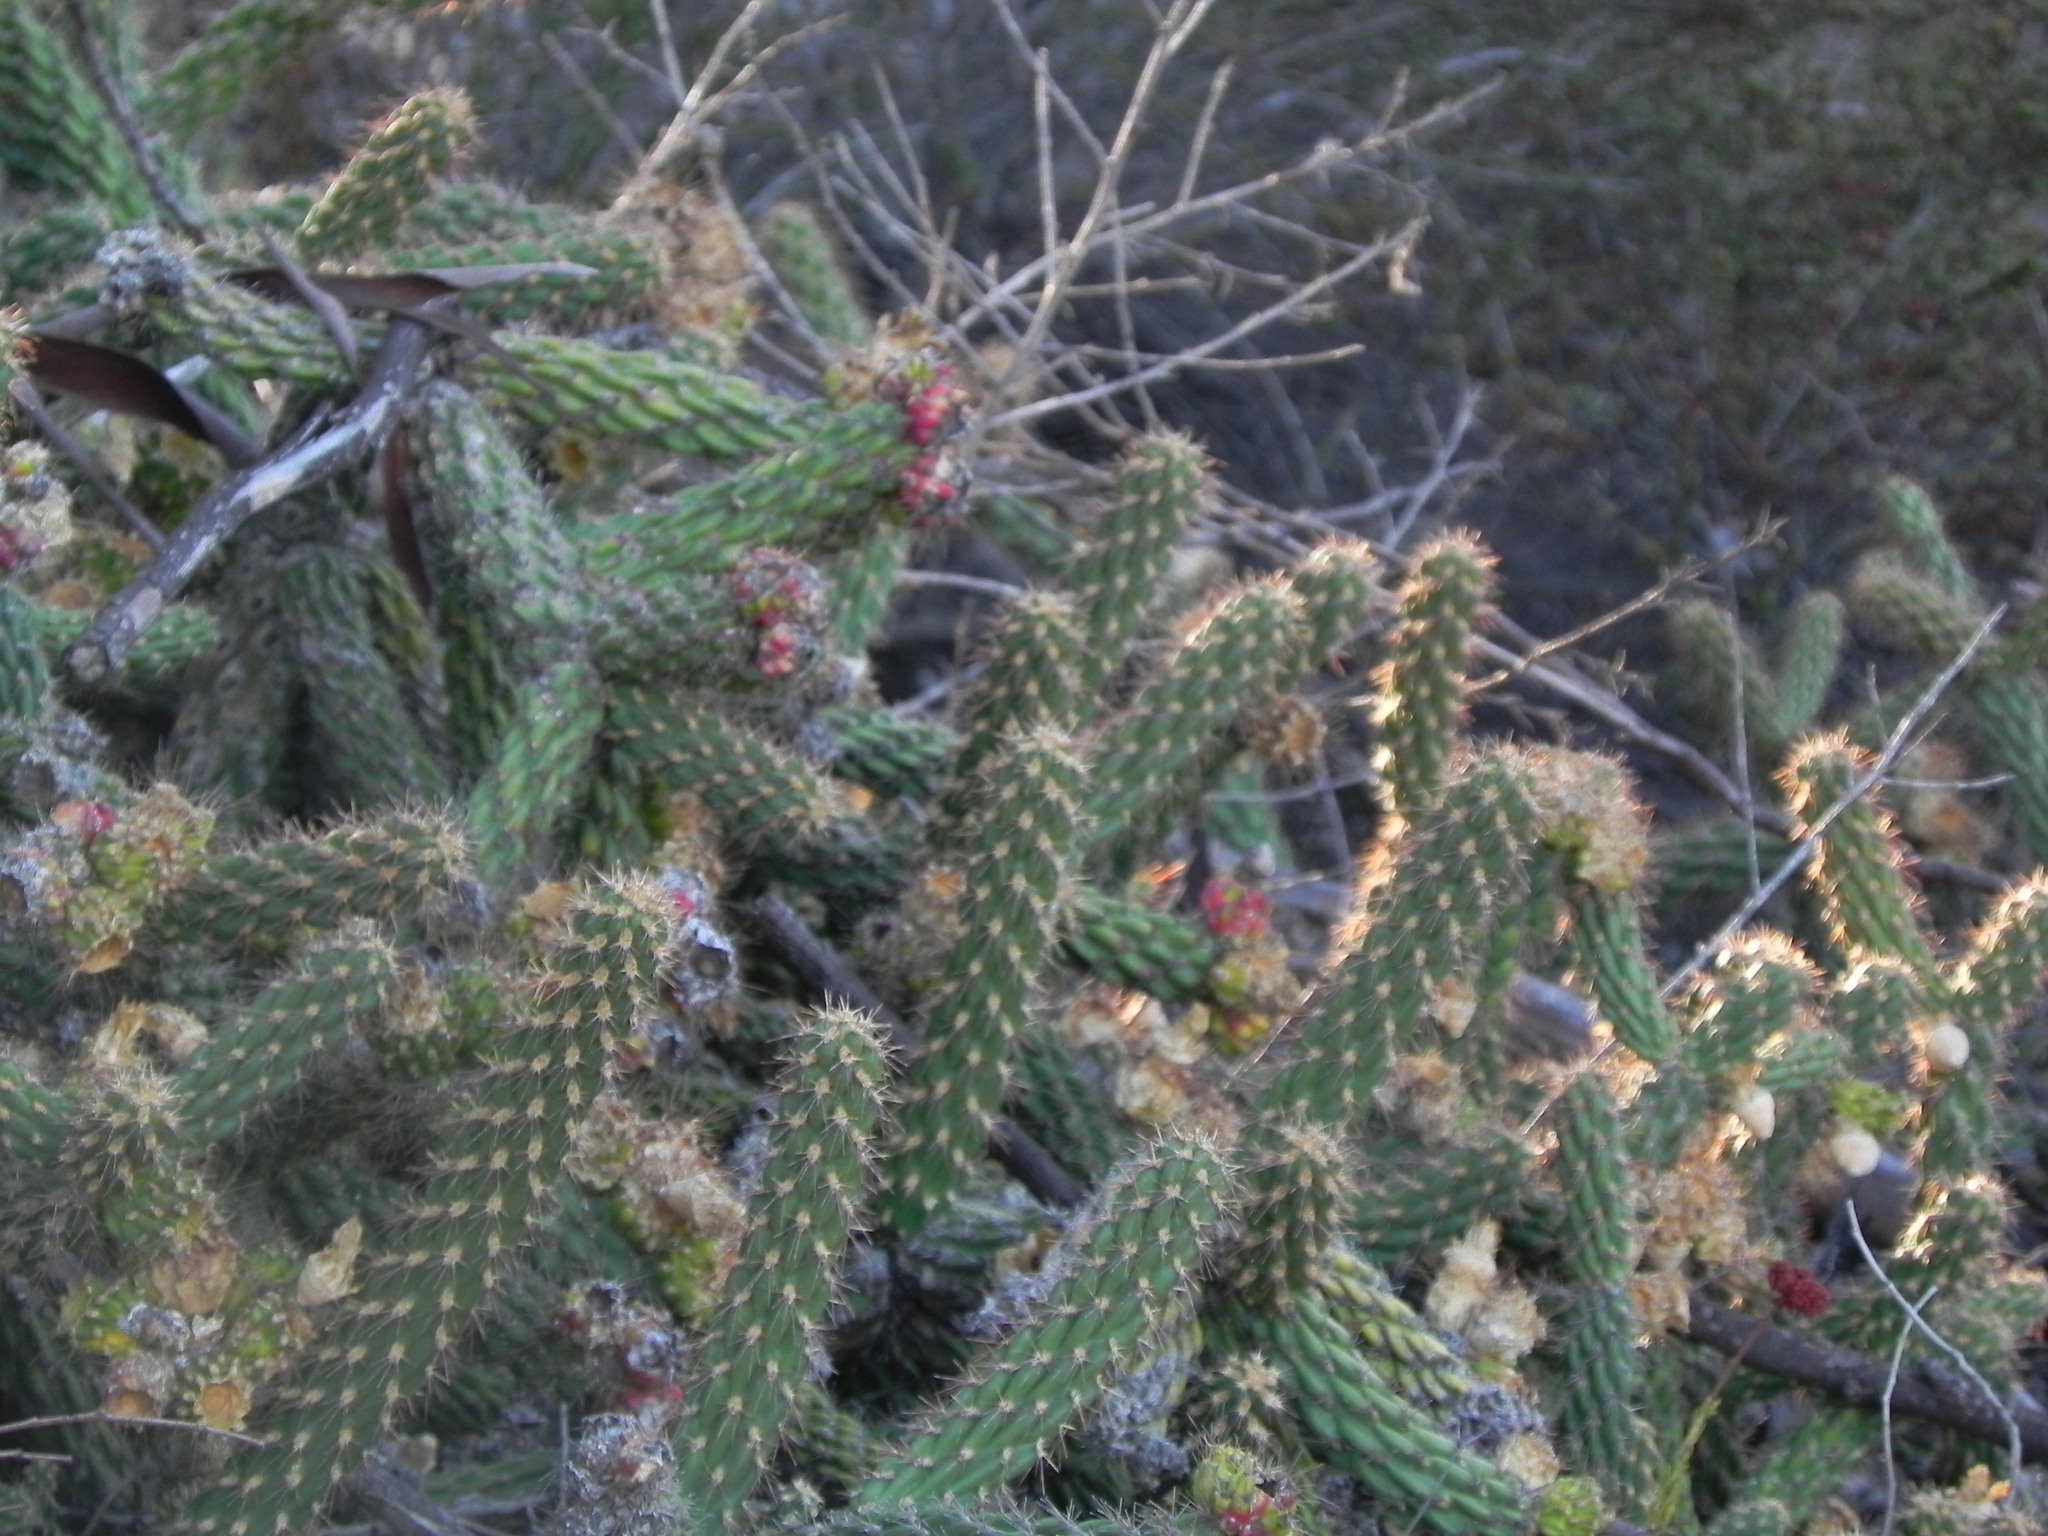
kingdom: Plantae
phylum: Tracheophyta
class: Magnoliopsida
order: Caryophyllales
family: Cactaceae
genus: Cylindropuntia
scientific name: Cylindropuntia californica
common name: Snake cholla
